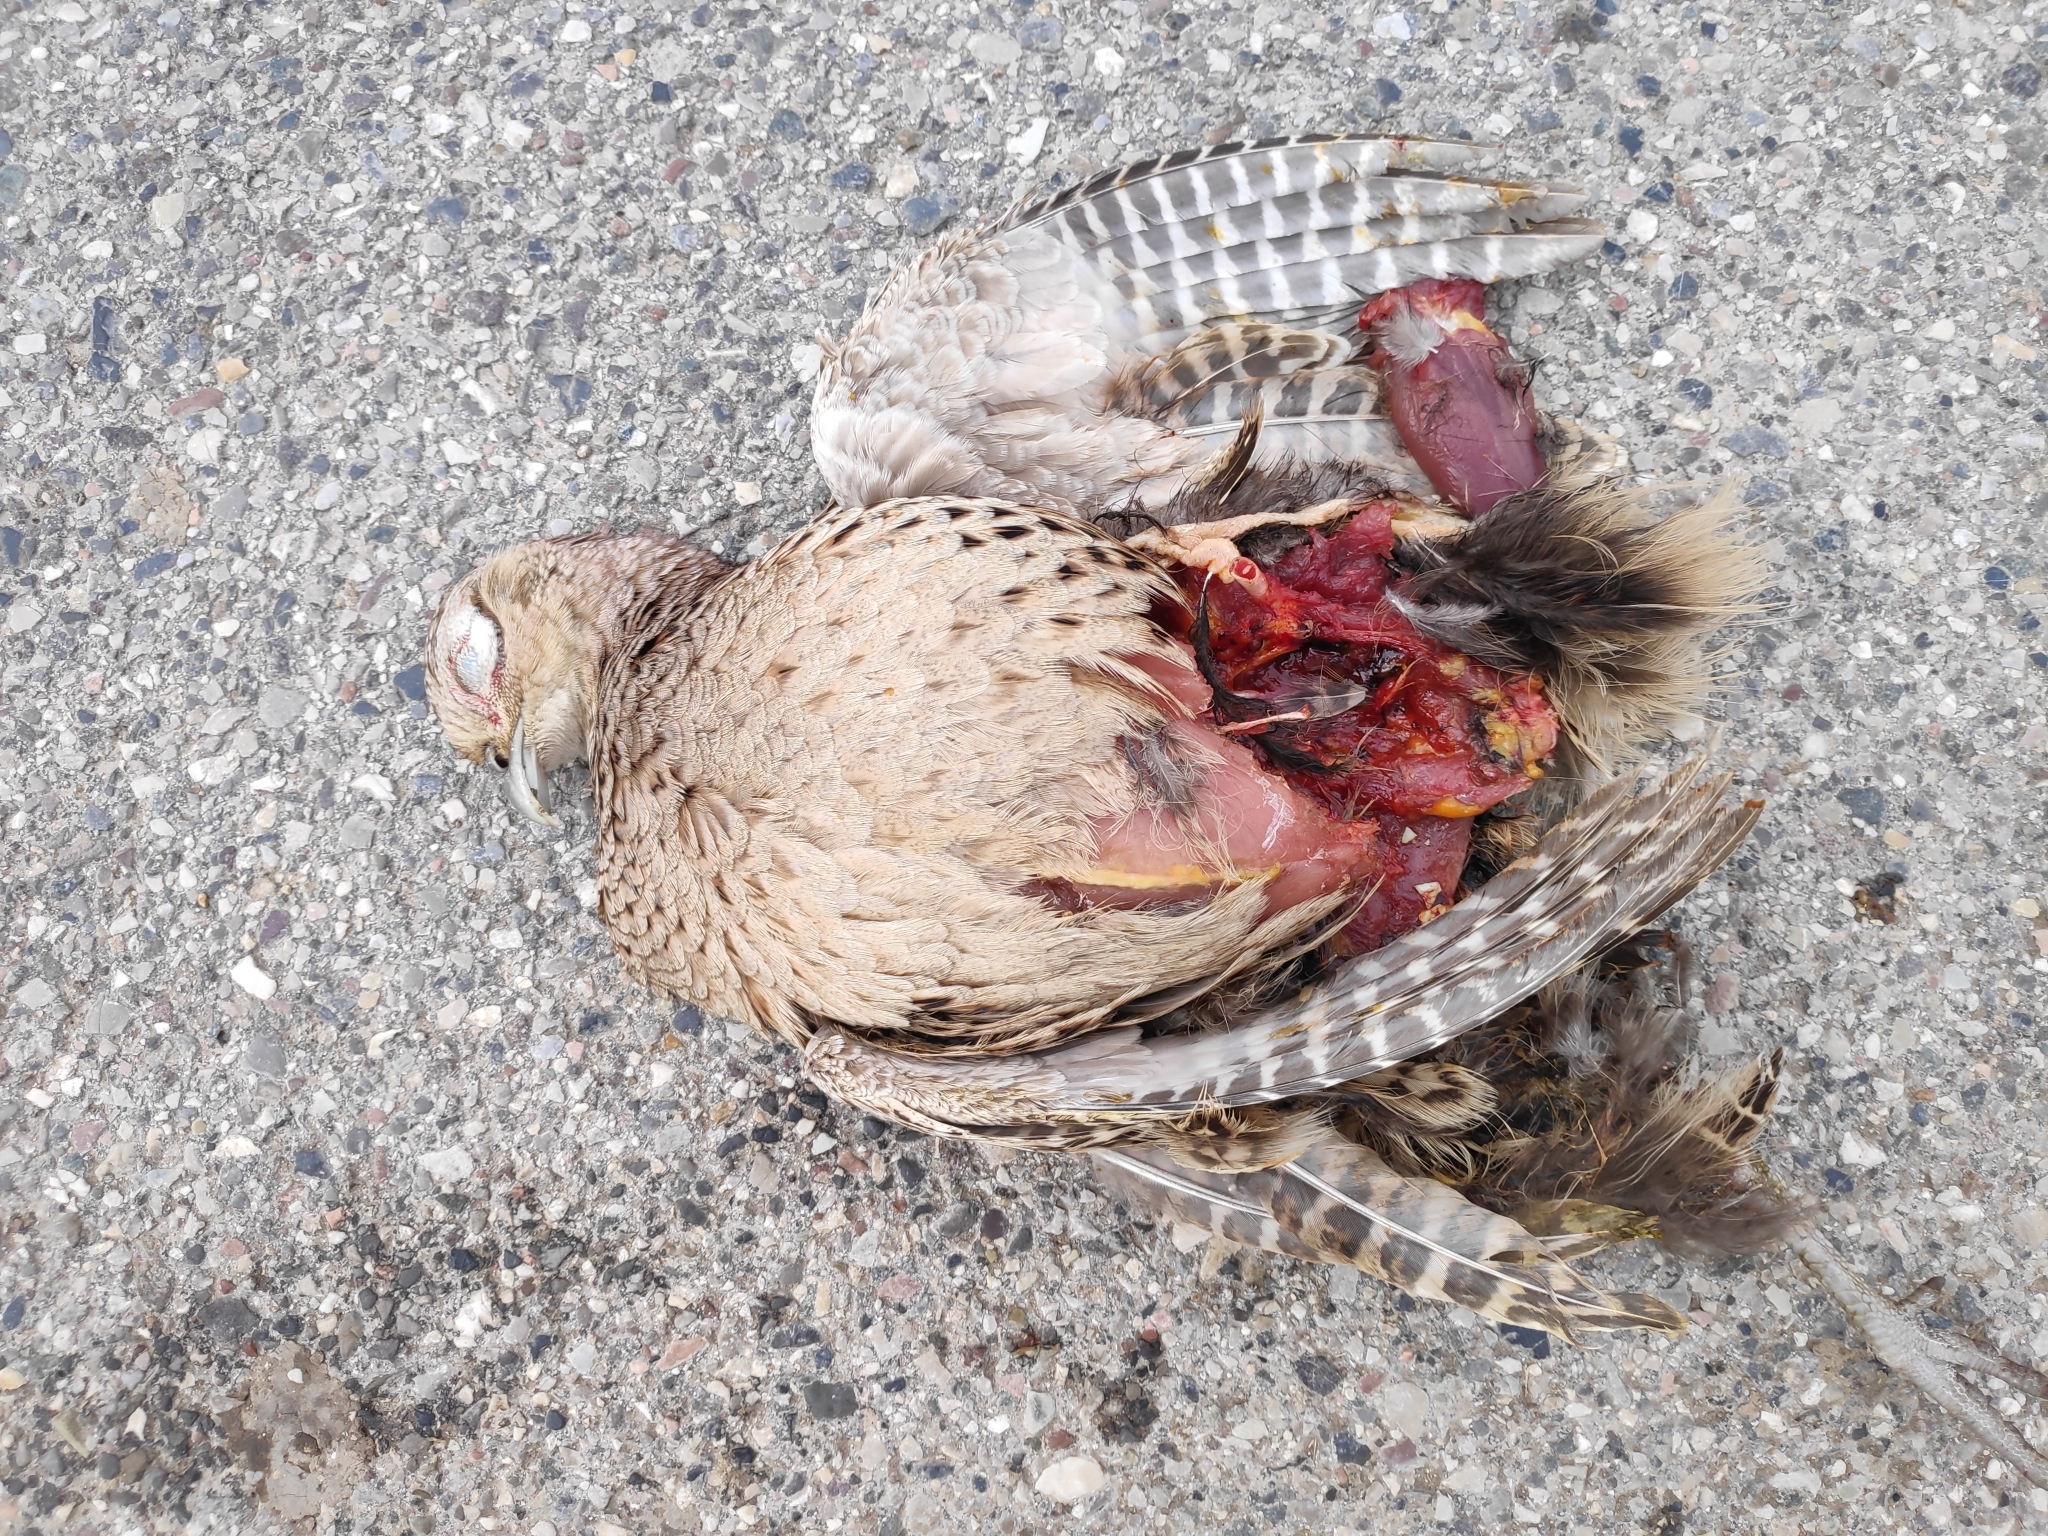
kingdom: Animalia
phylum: Chordata
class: Aves
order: Galliformes
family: Phasianidae
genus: Phasianus
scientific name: Phasianus colchicus
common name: Common pheasant
